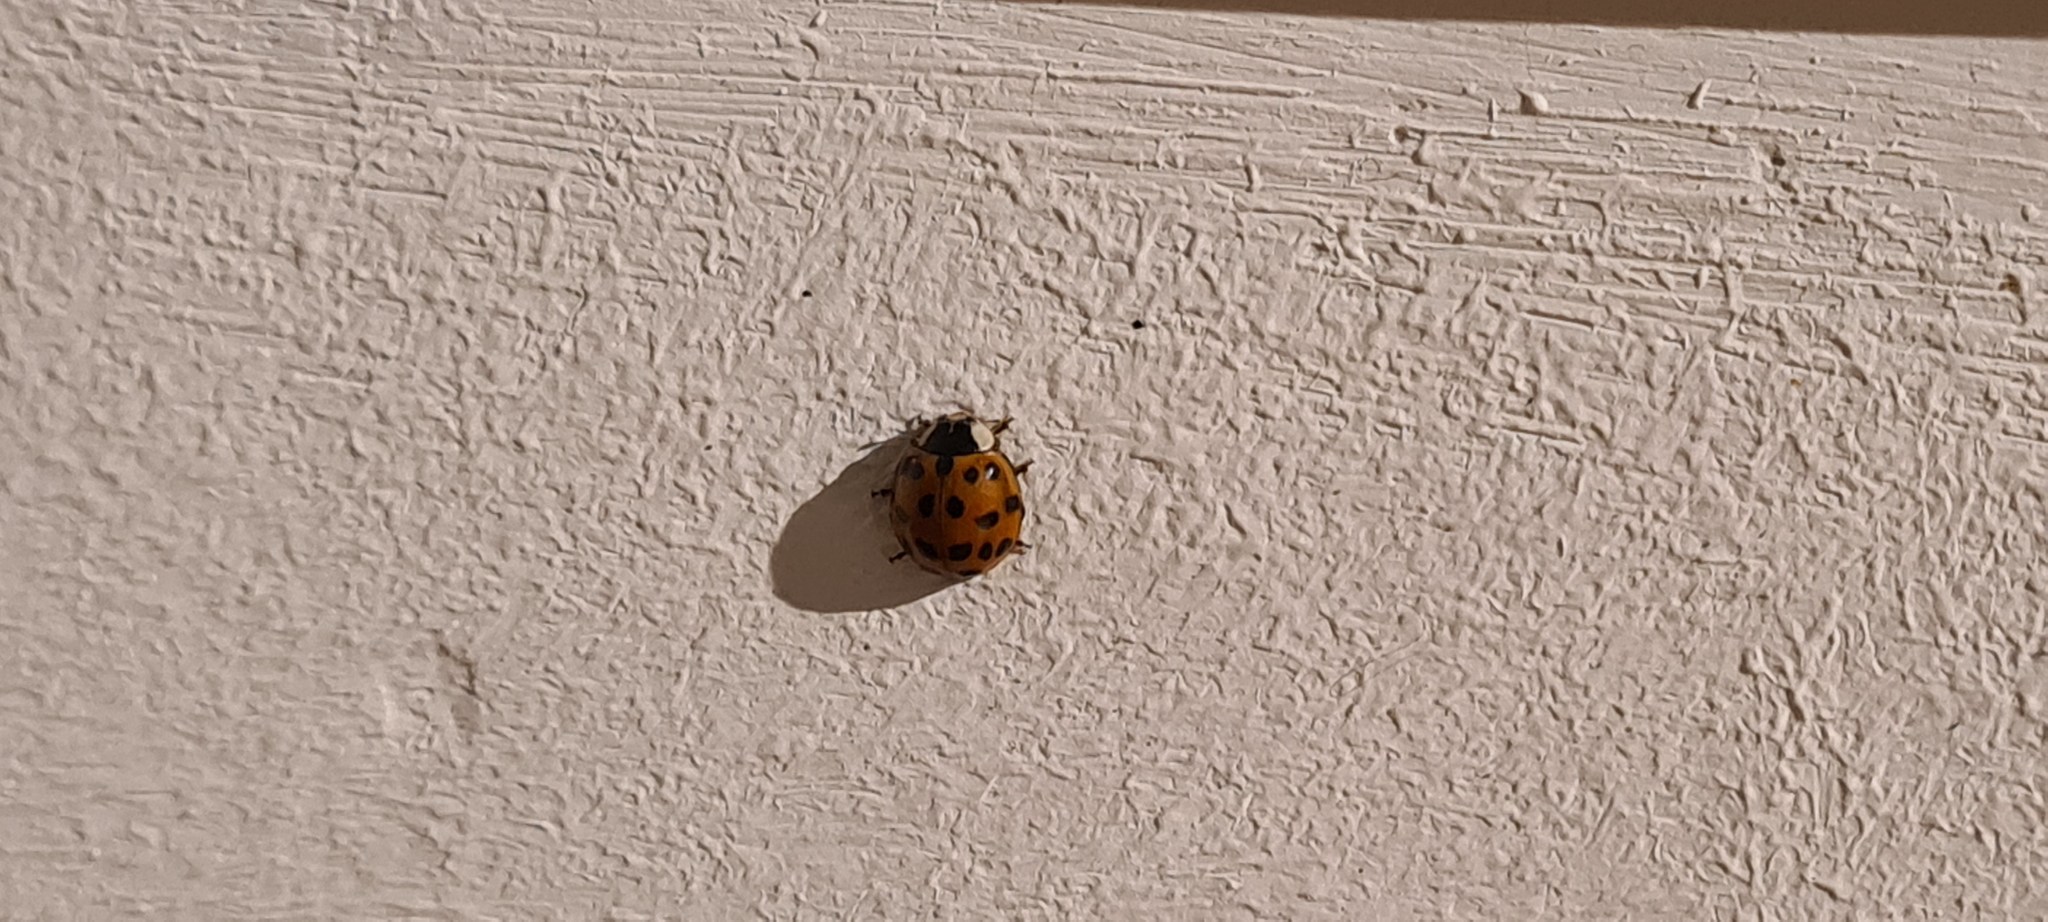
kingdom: Animalia
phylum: Arthropoda
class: Insecta
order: Coleoptera
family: Coccinellidae
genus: Harmonia
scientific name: Harmonia axyridis
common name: Harlequin ladybird
